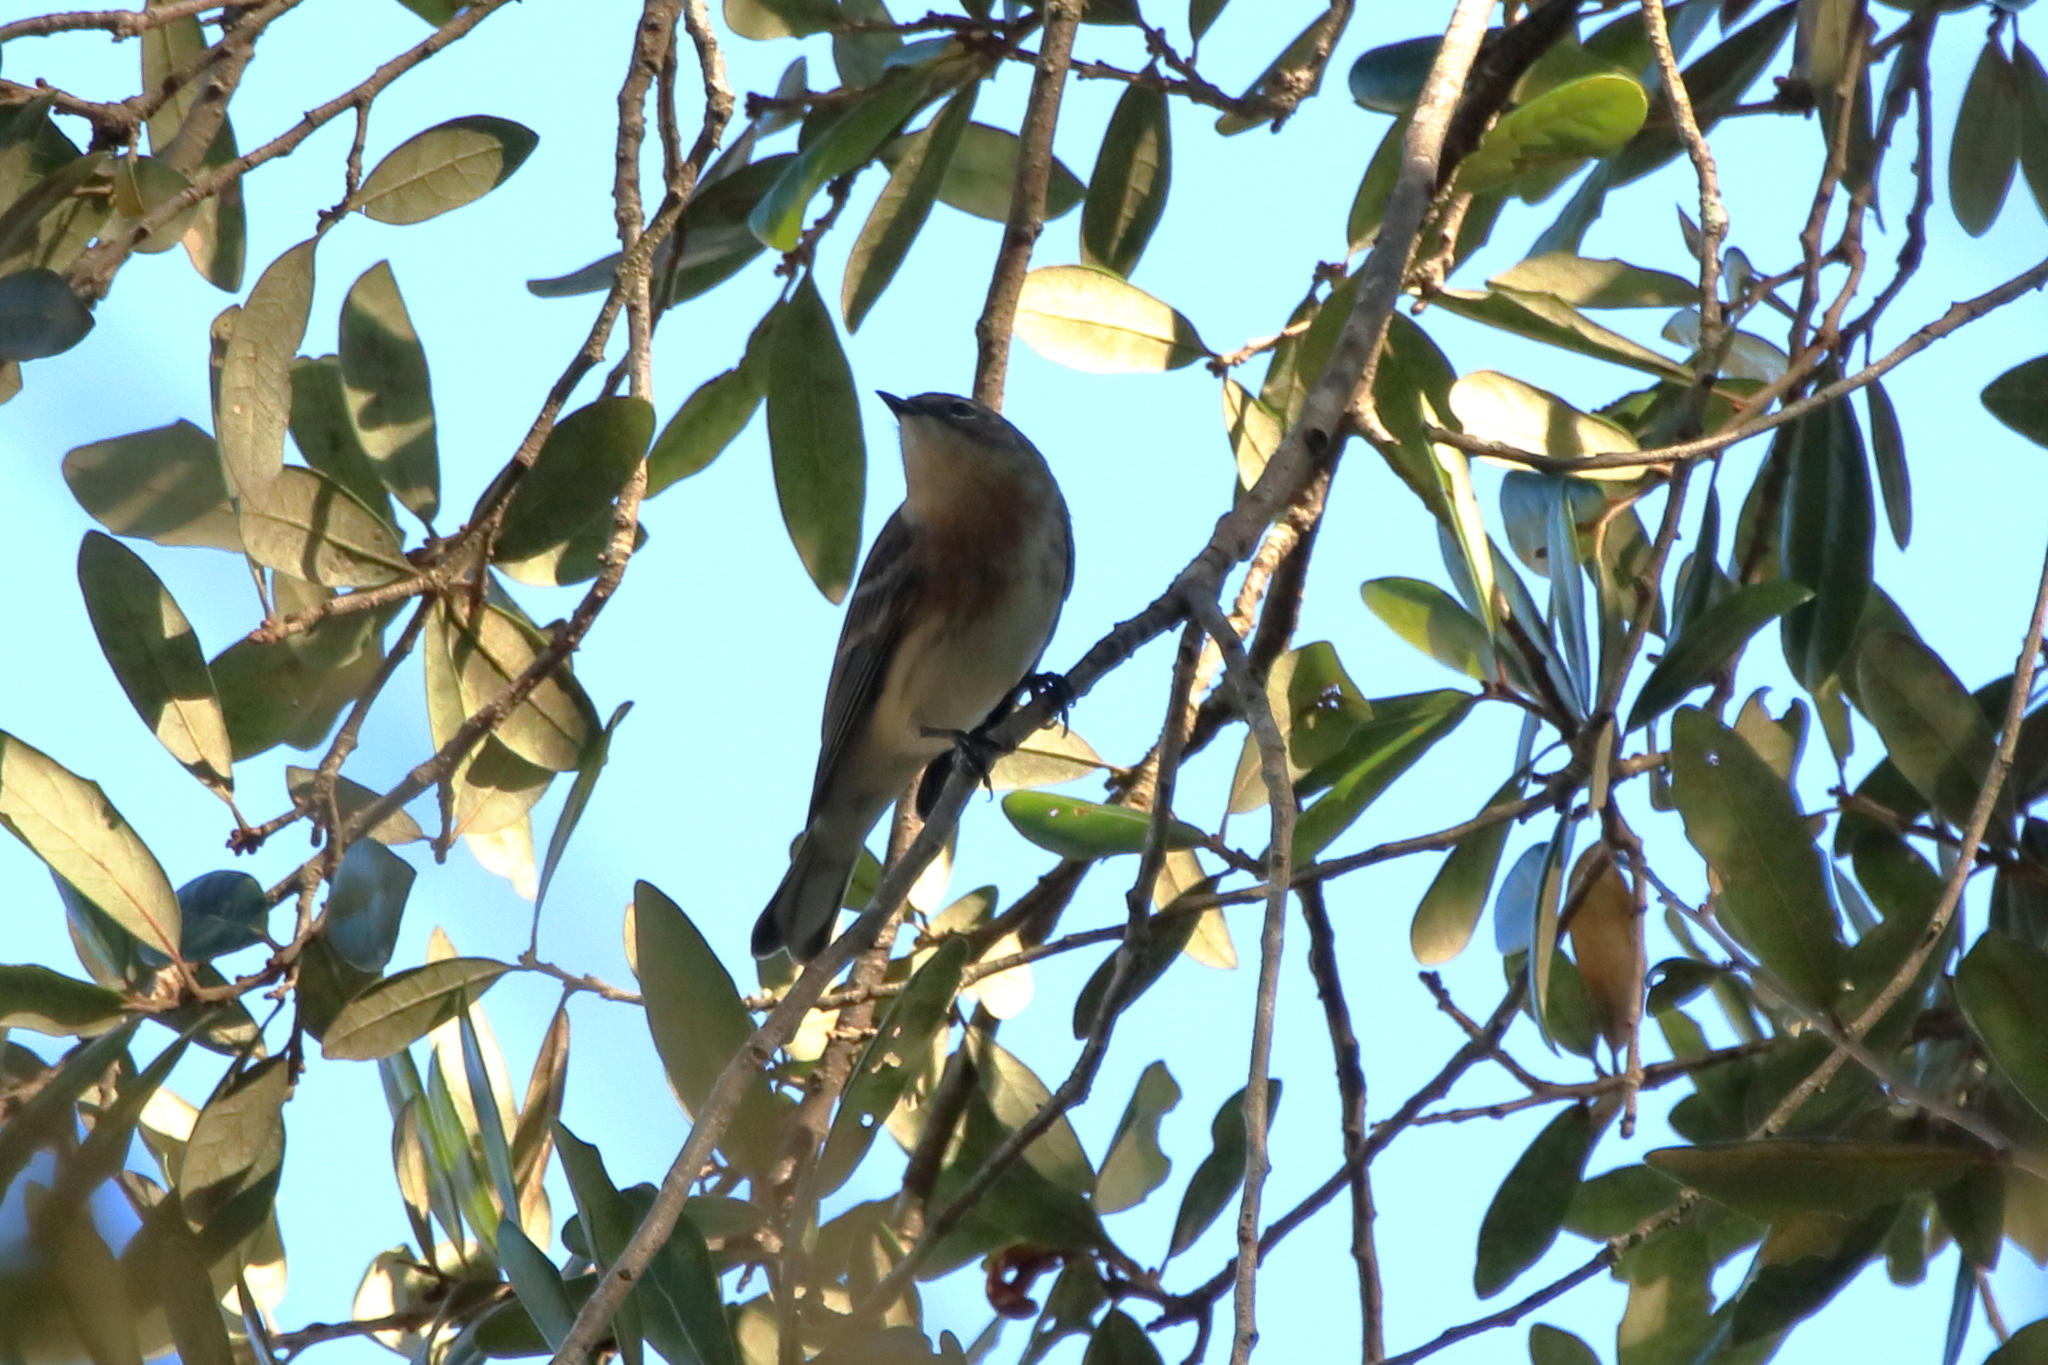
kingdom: Animalia
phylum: Chordata
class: Aves
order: Passeriformes
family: Parulidae
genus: Setophaga
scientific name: Setophaga coronata
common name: Myrtle warbler
